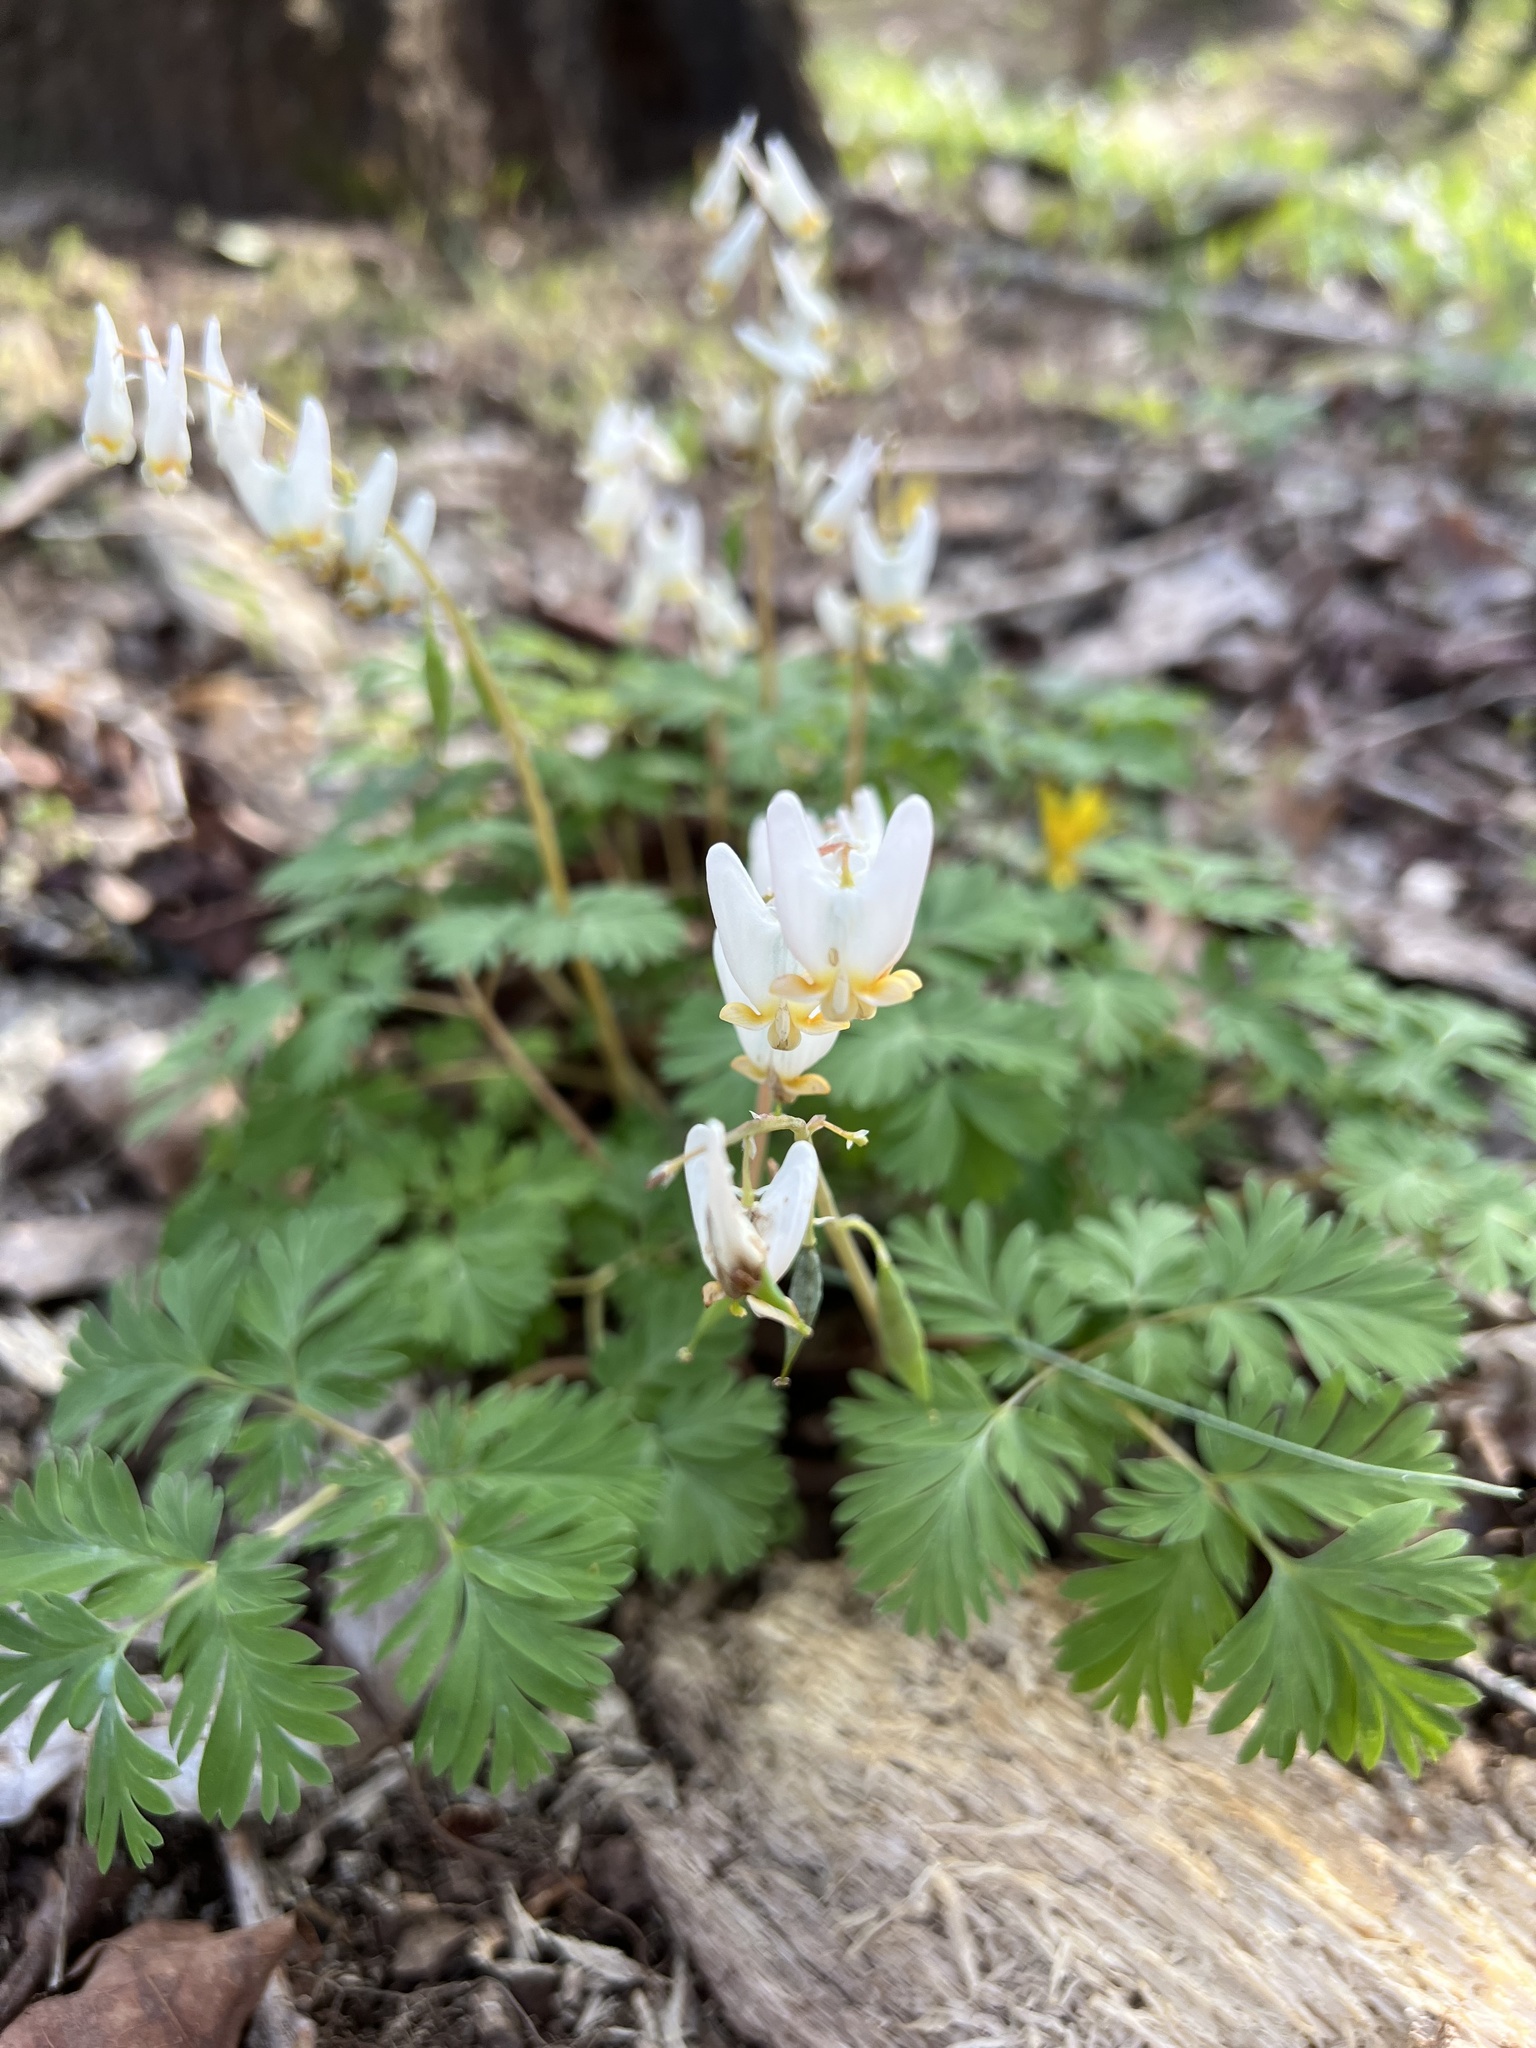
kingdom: Plantae
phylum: Tracheophyta
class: Magnoliopsida
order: Ranunculales
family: Papaveraceae
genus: Dicentra
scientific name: Dicentra cucullaria
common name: Dutchman's breeches
